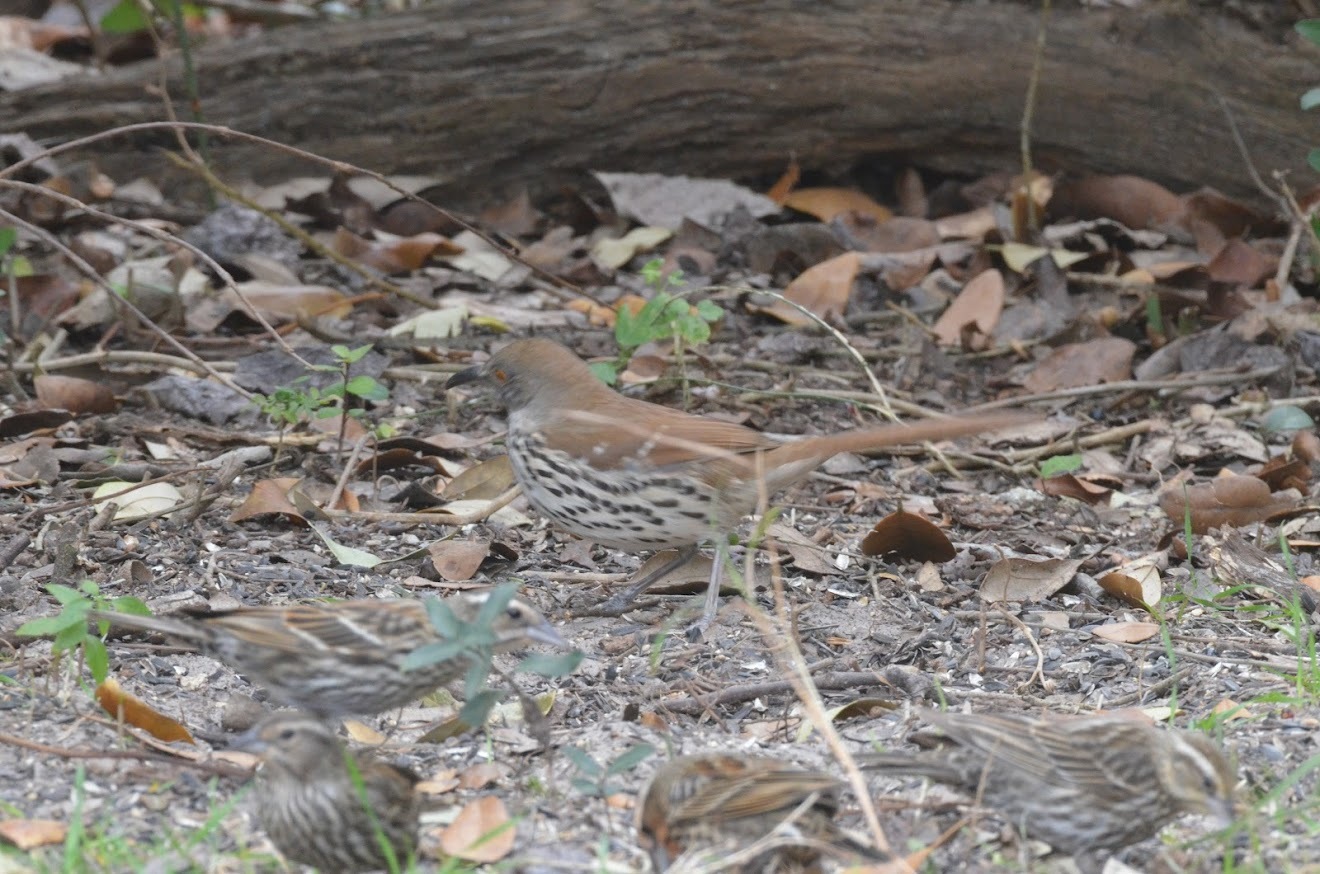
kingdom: Animalia
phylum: Chordata
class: Aves
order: Passeriformes
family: Mimidae
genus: Toxostoma
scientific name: Toxostoma longirostre
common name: Long-billed thrasher
